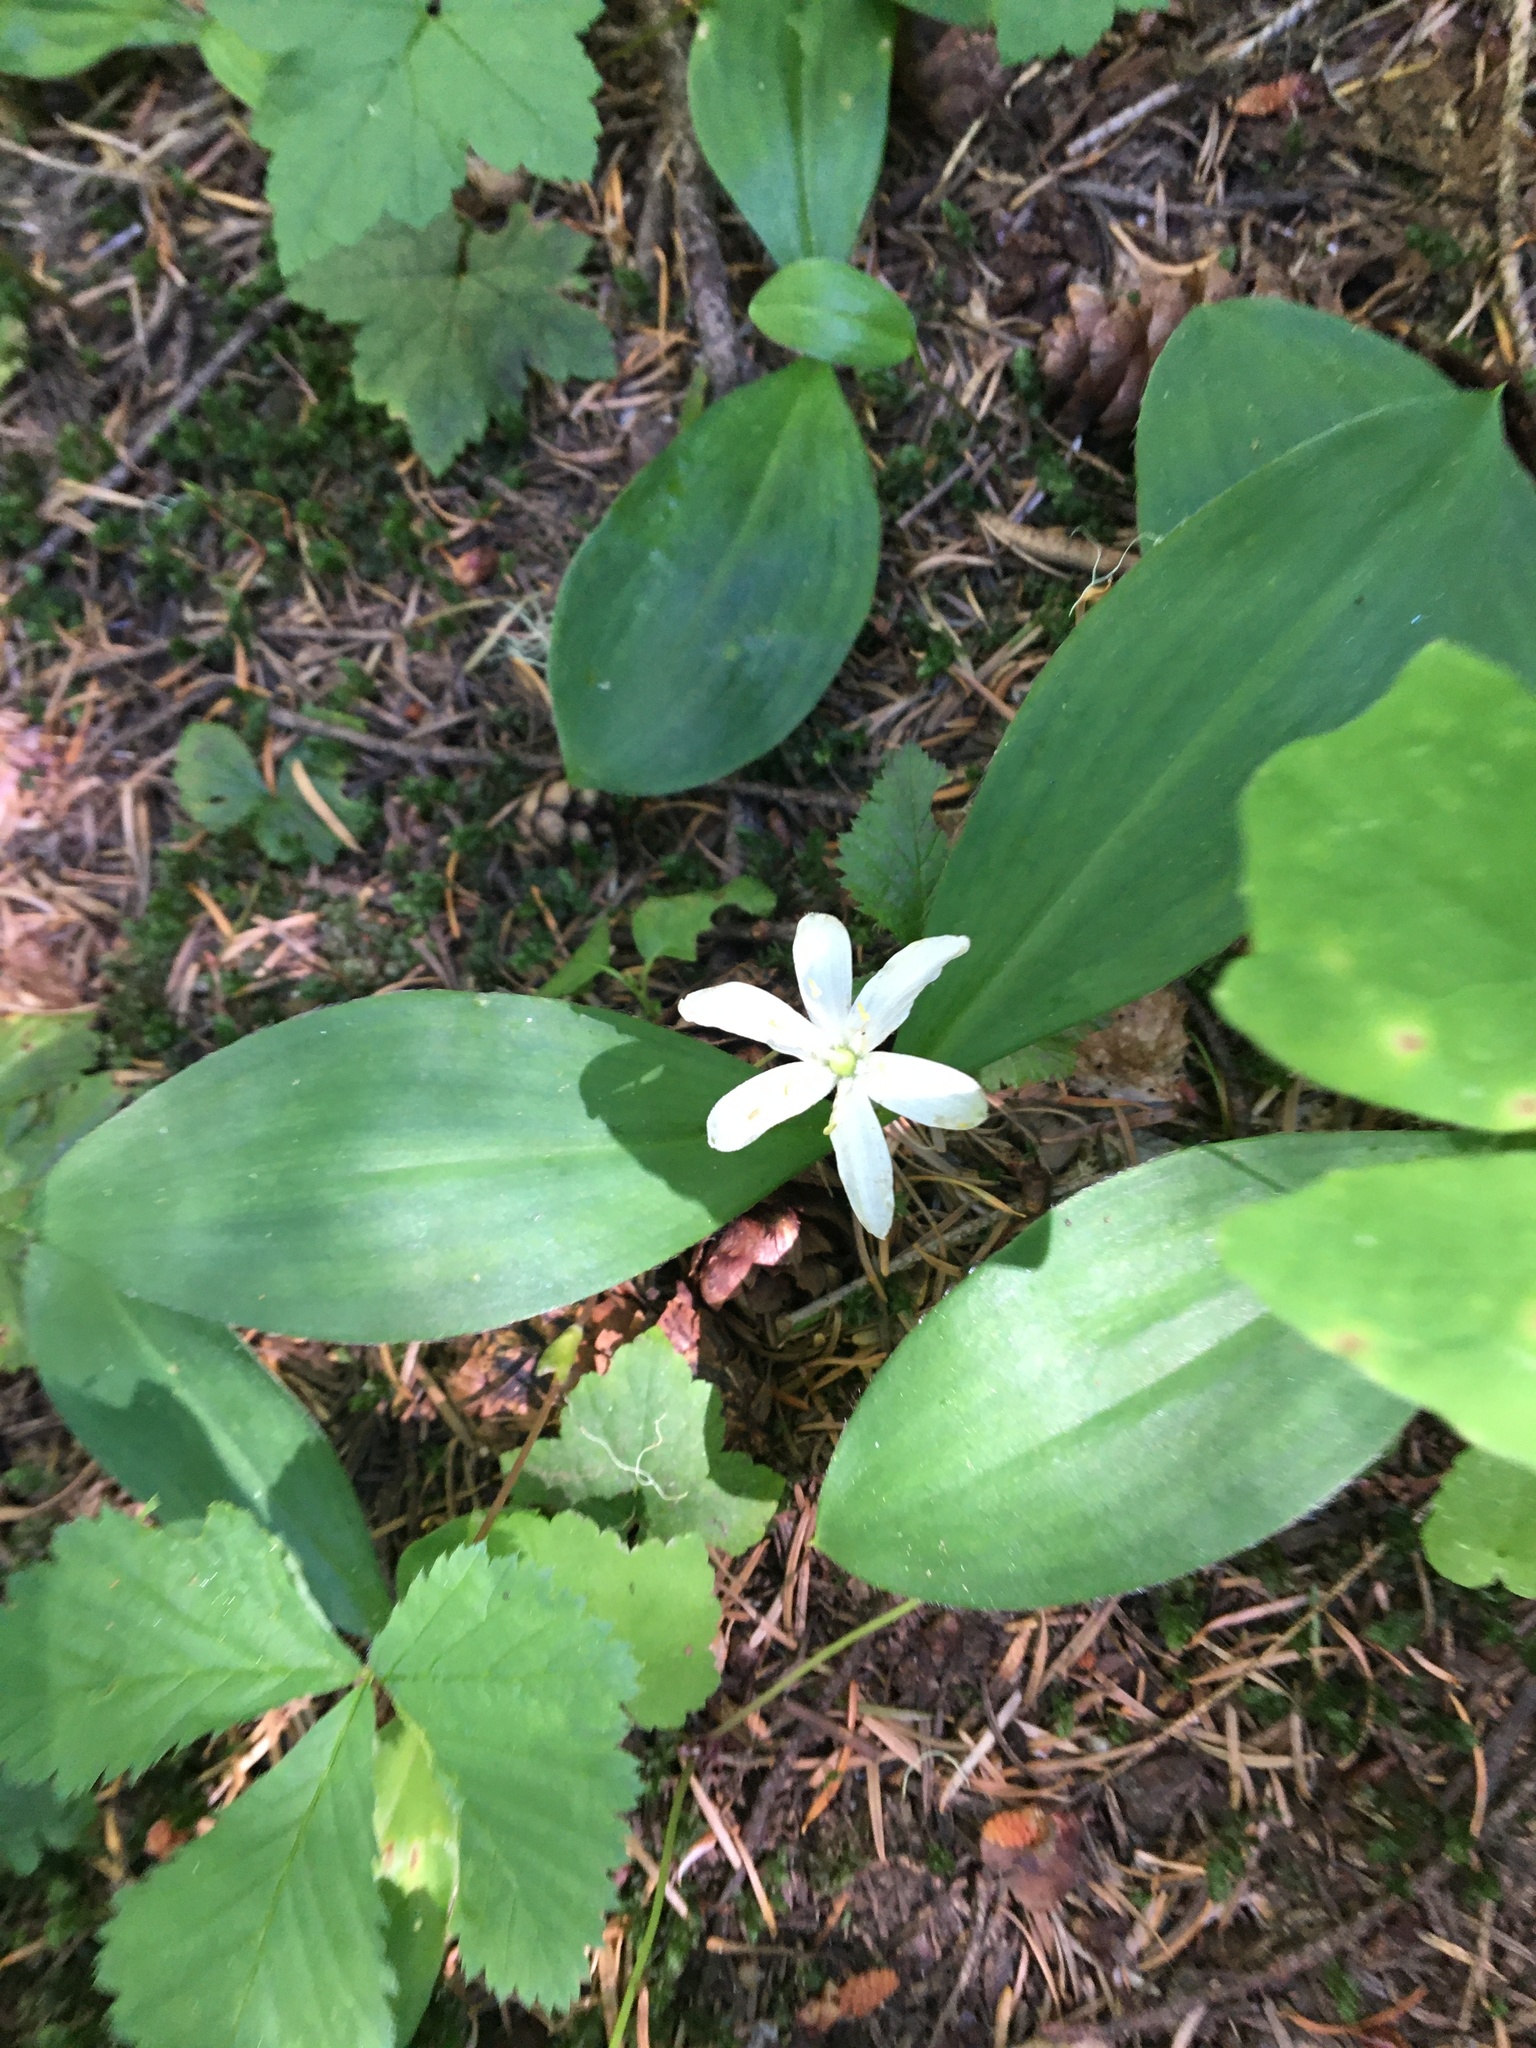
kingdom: Plantae
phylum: Tracheophyta
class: Liliopsida
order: Liliales
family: Liliaceae
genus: Clintonia
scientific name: Clintonia uniflora
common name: Queen's cup
